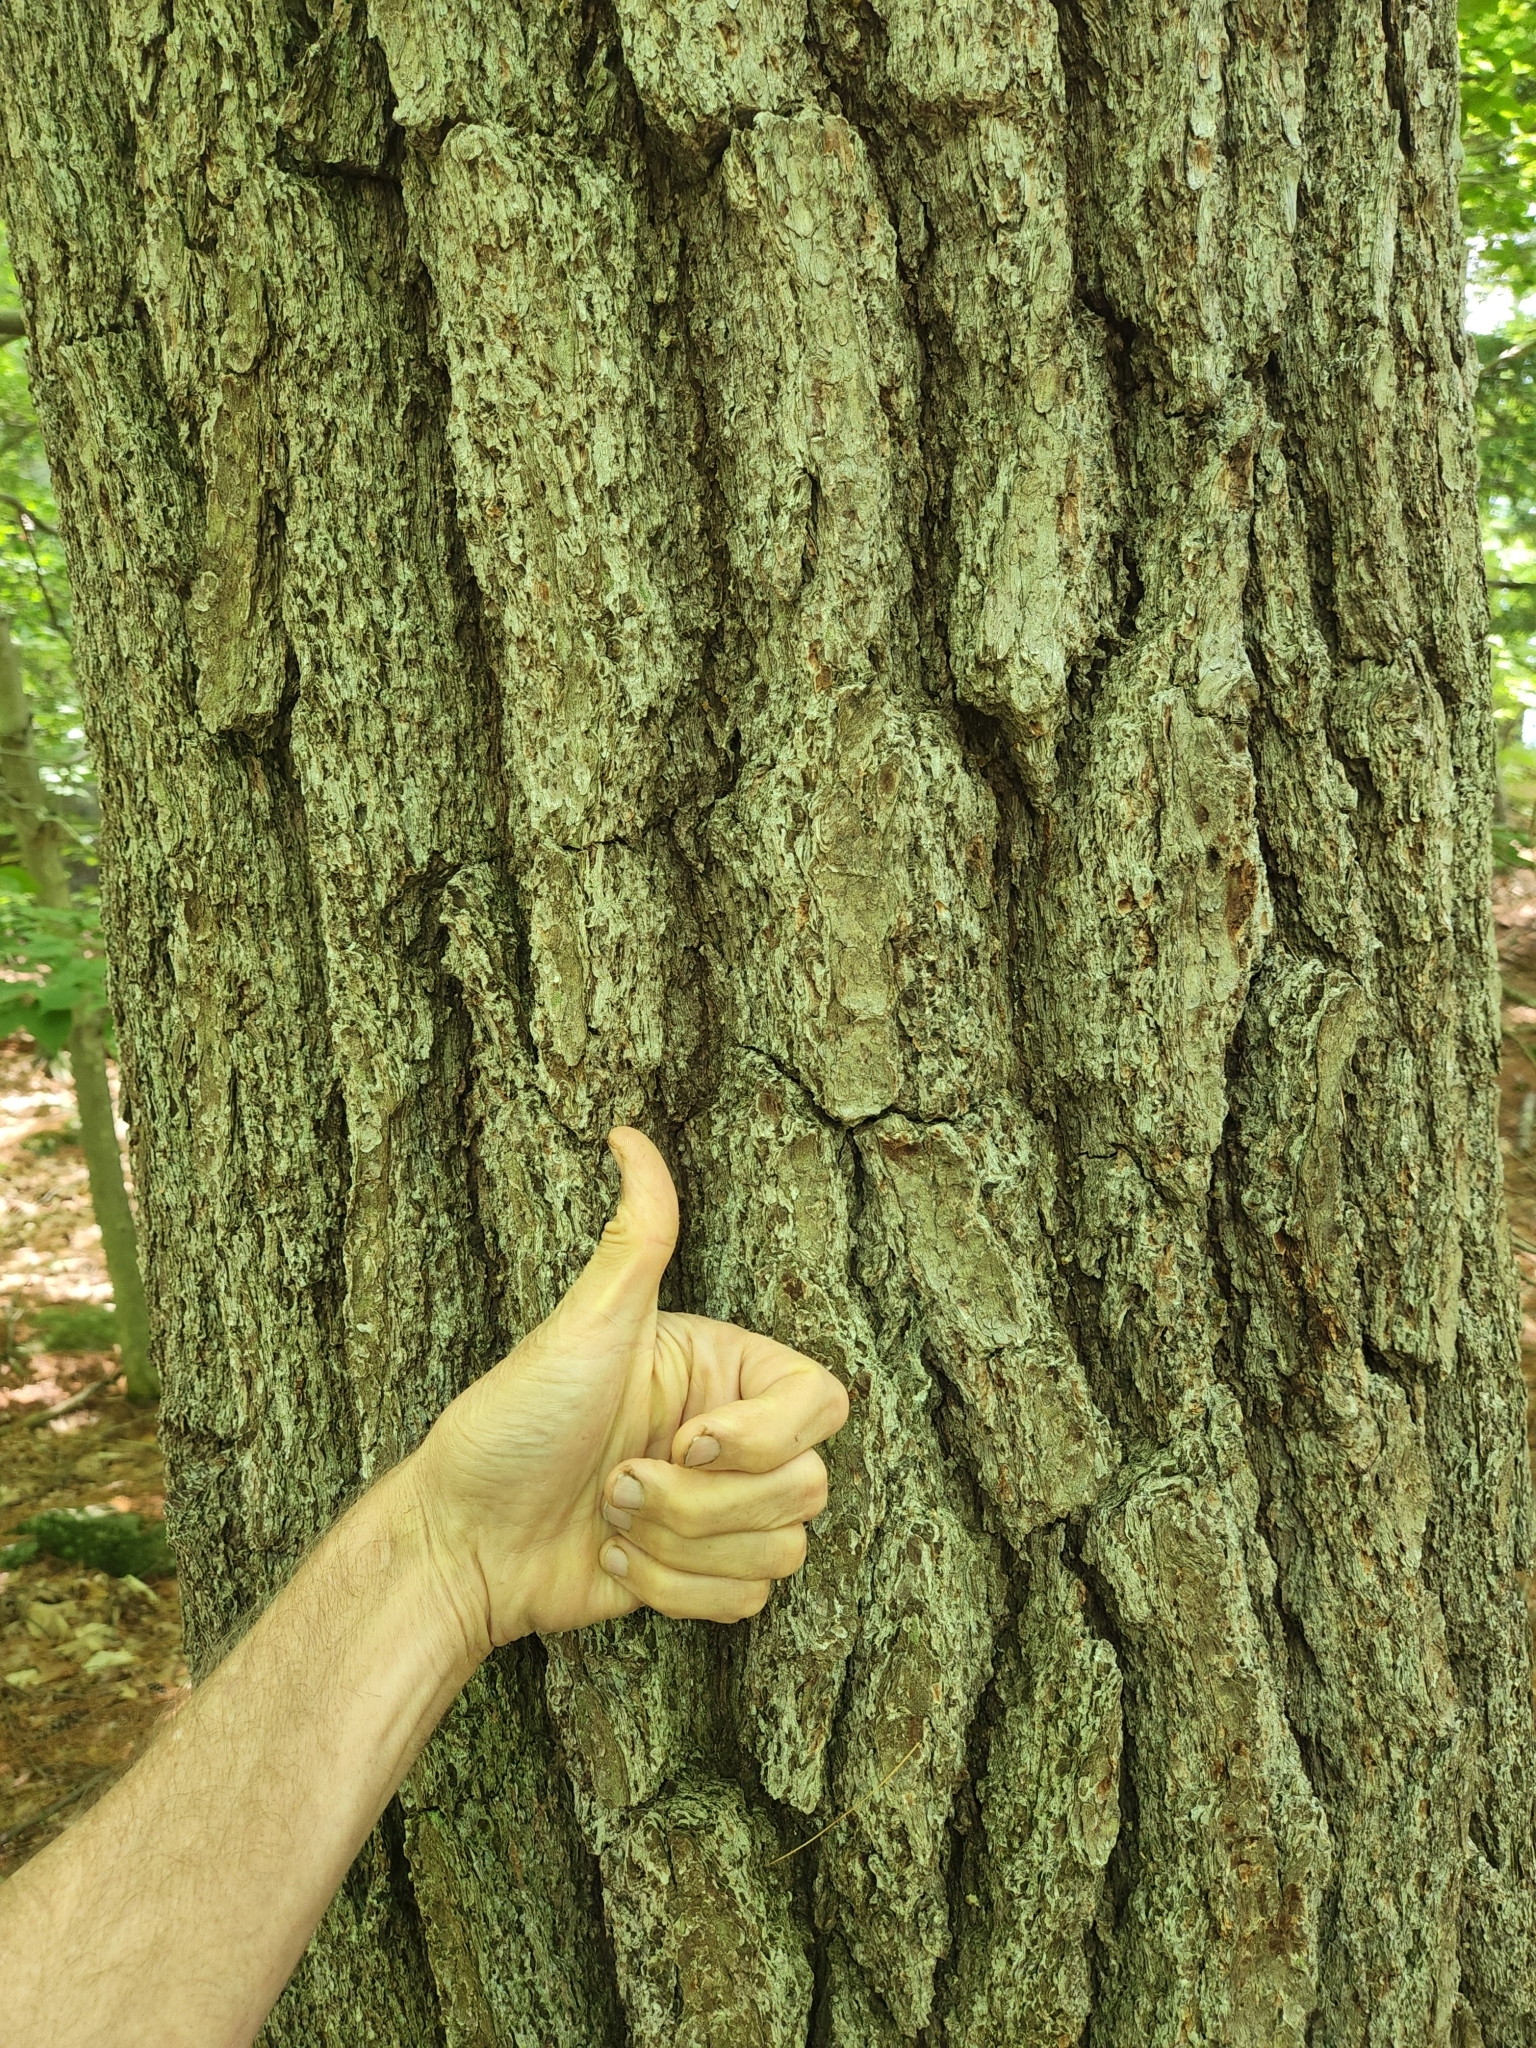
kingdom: Plantae
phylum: Tracheophyta
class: Pinopsida
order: Pinales
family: Pinaceae
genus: Pinus
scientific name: Pinus strobus
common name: Weymouth pine
